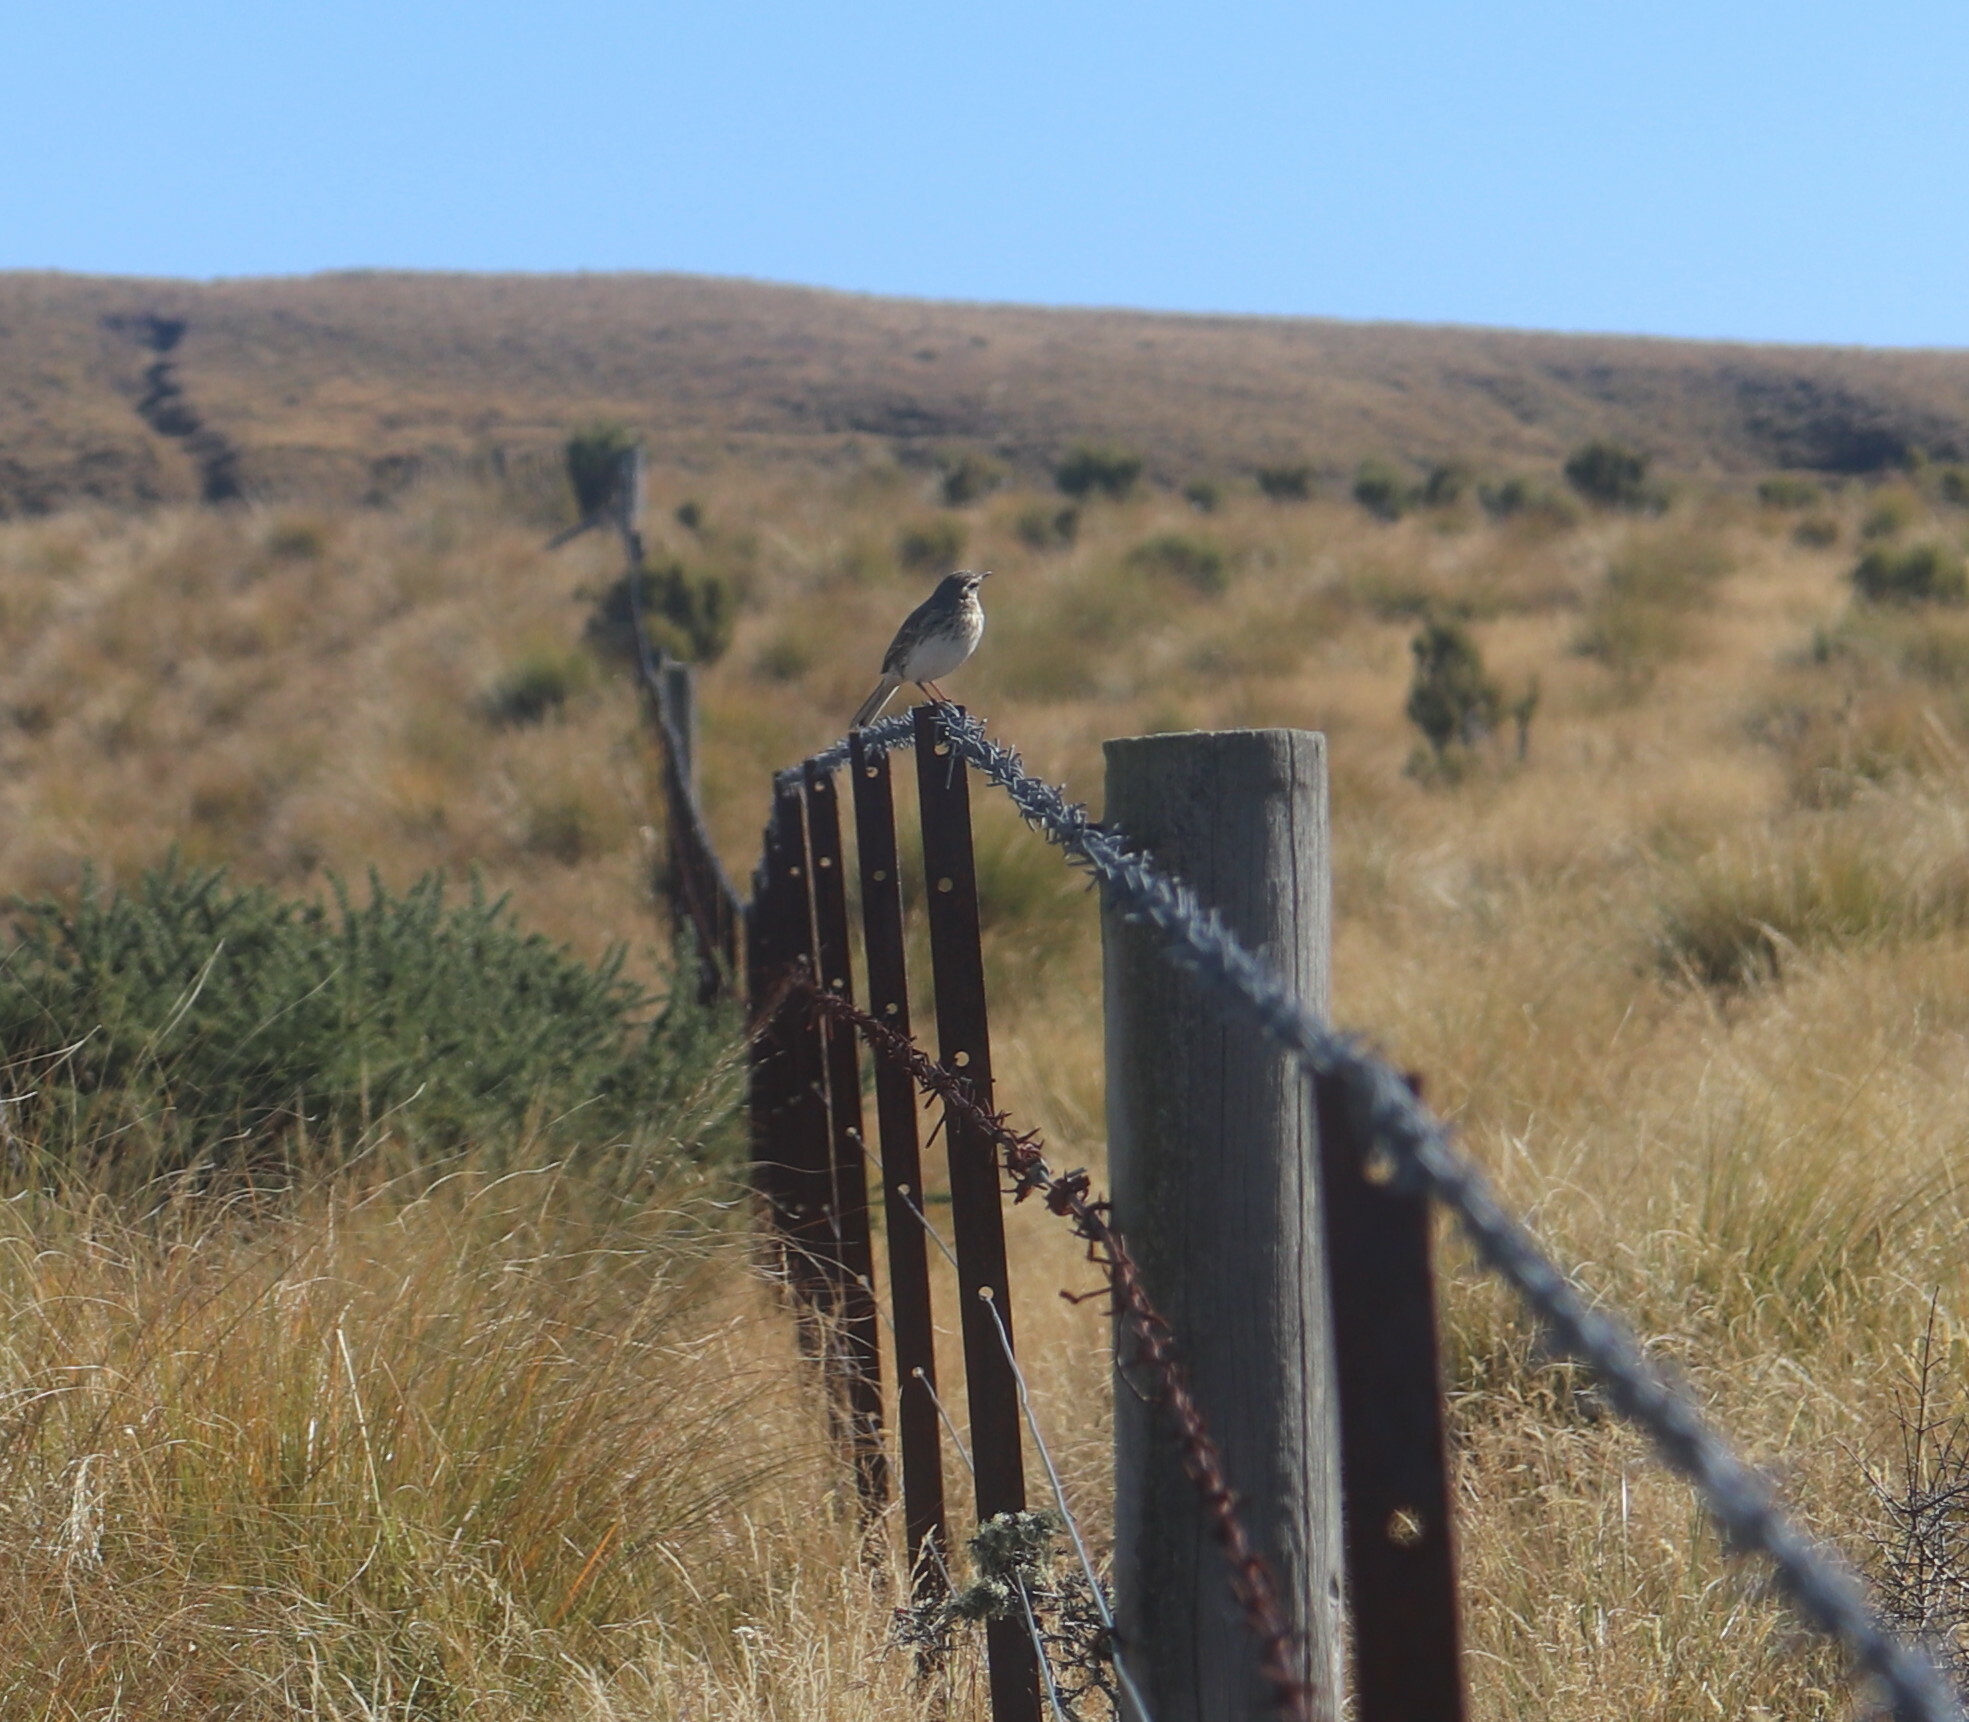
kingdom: Animalia
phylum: Chordata
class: Aves
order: Passeriformes
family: Motacillidae
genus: Anthus
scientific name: Anthus novaeseelandiae
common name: New zealand pipit
